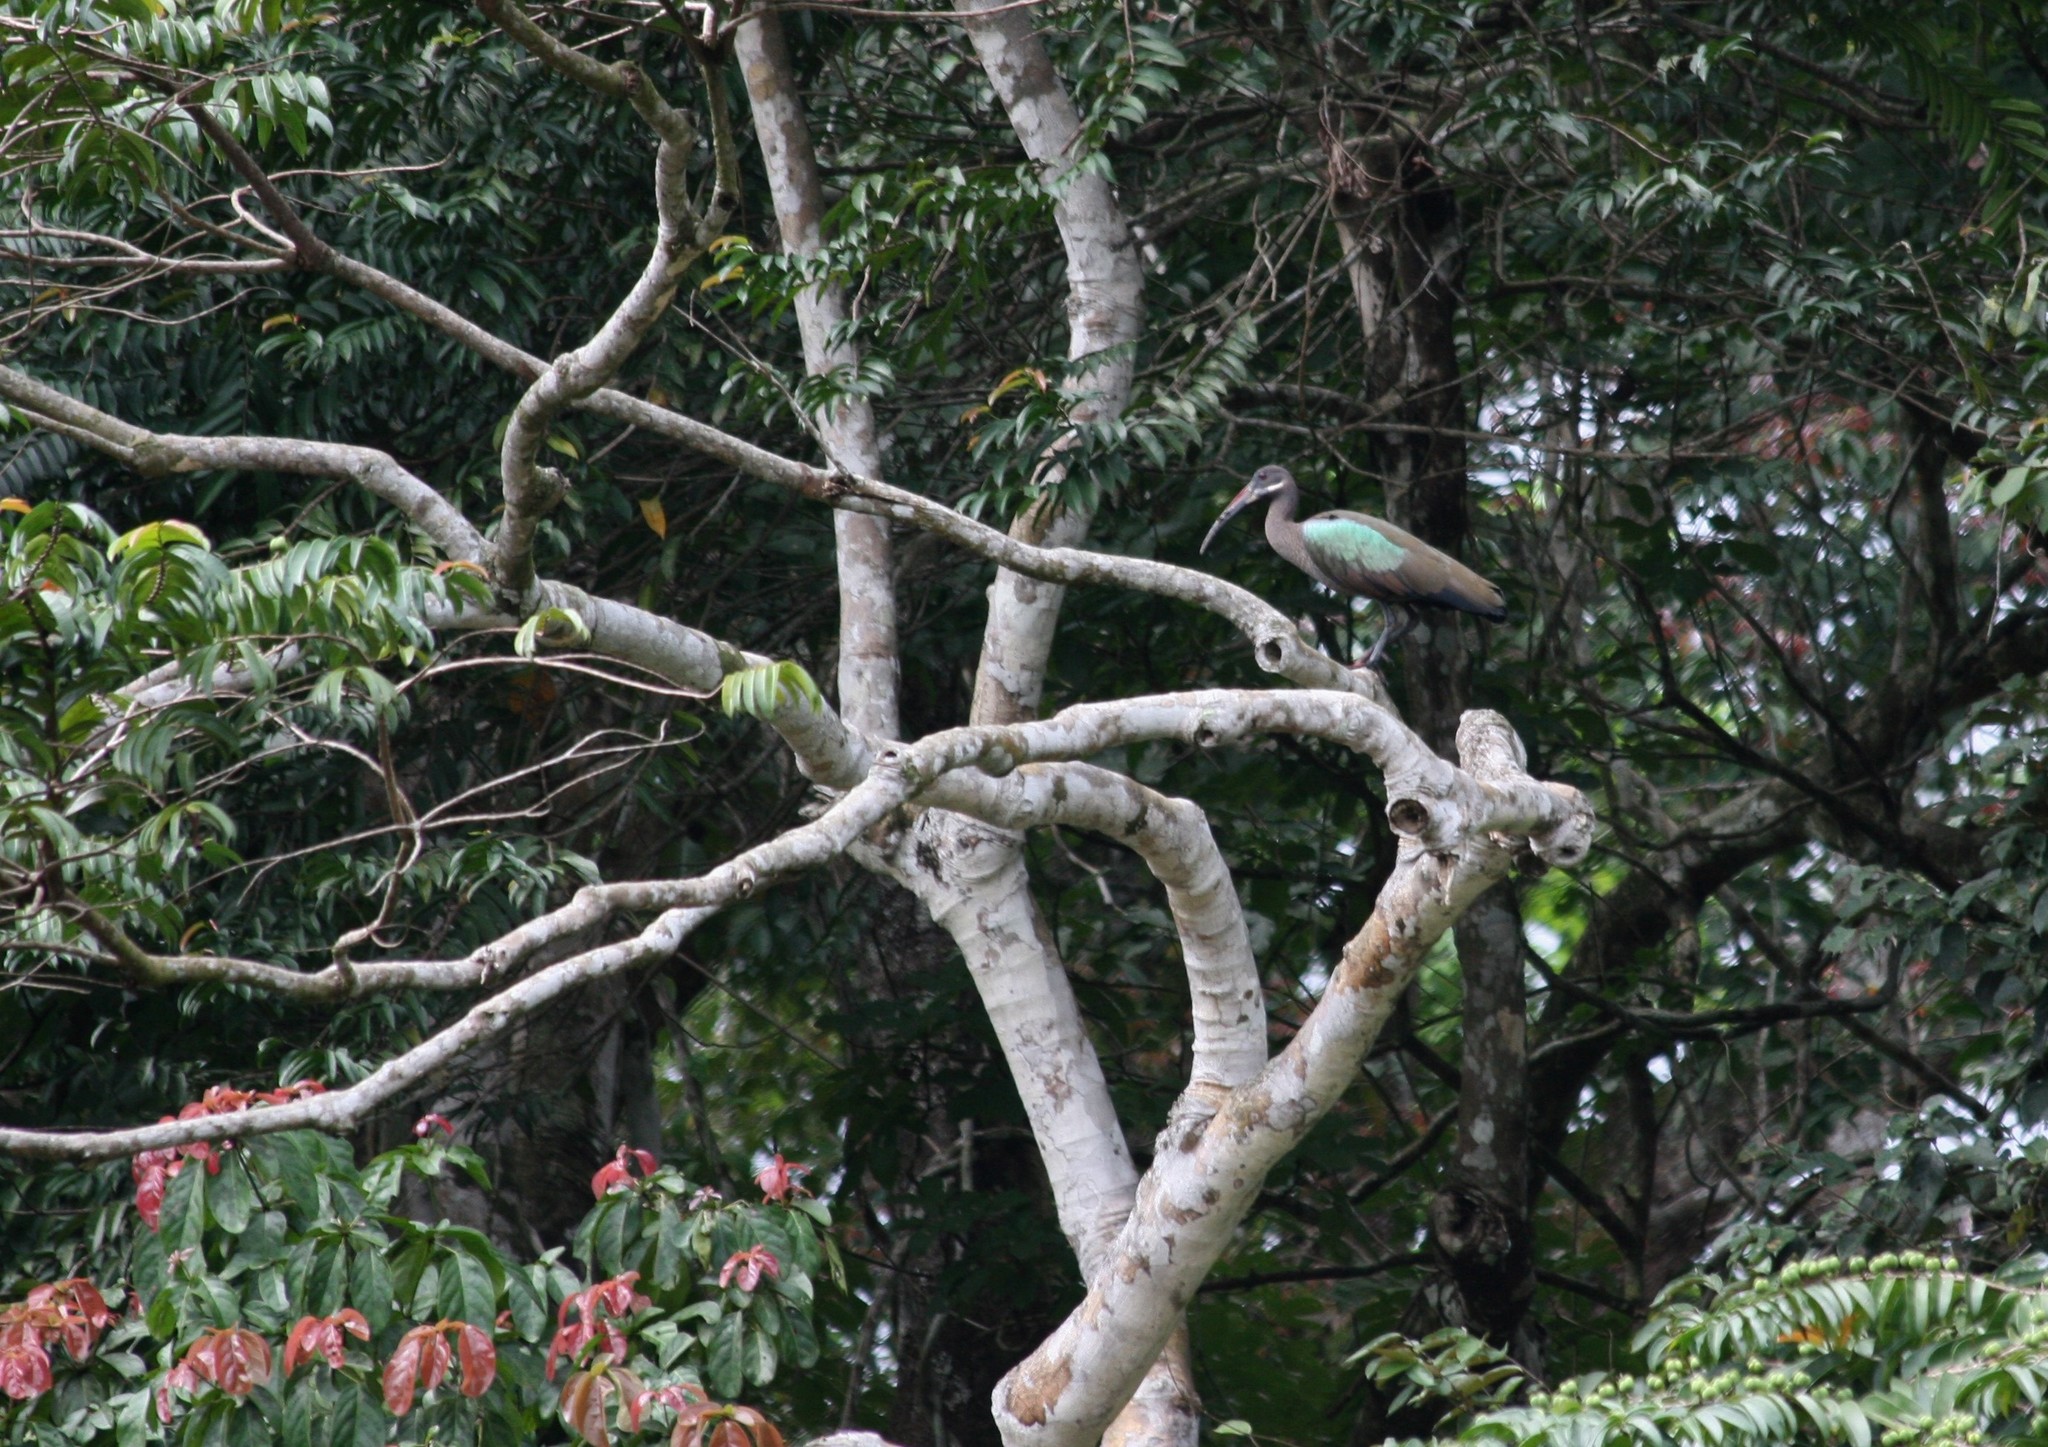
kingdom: Animalia
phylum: Chordata
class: Aves
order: Pelecaniformes
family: Threskiornithidae
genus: Bostrychia
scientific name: Bostrychia hagedash
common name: Hadada ibis
